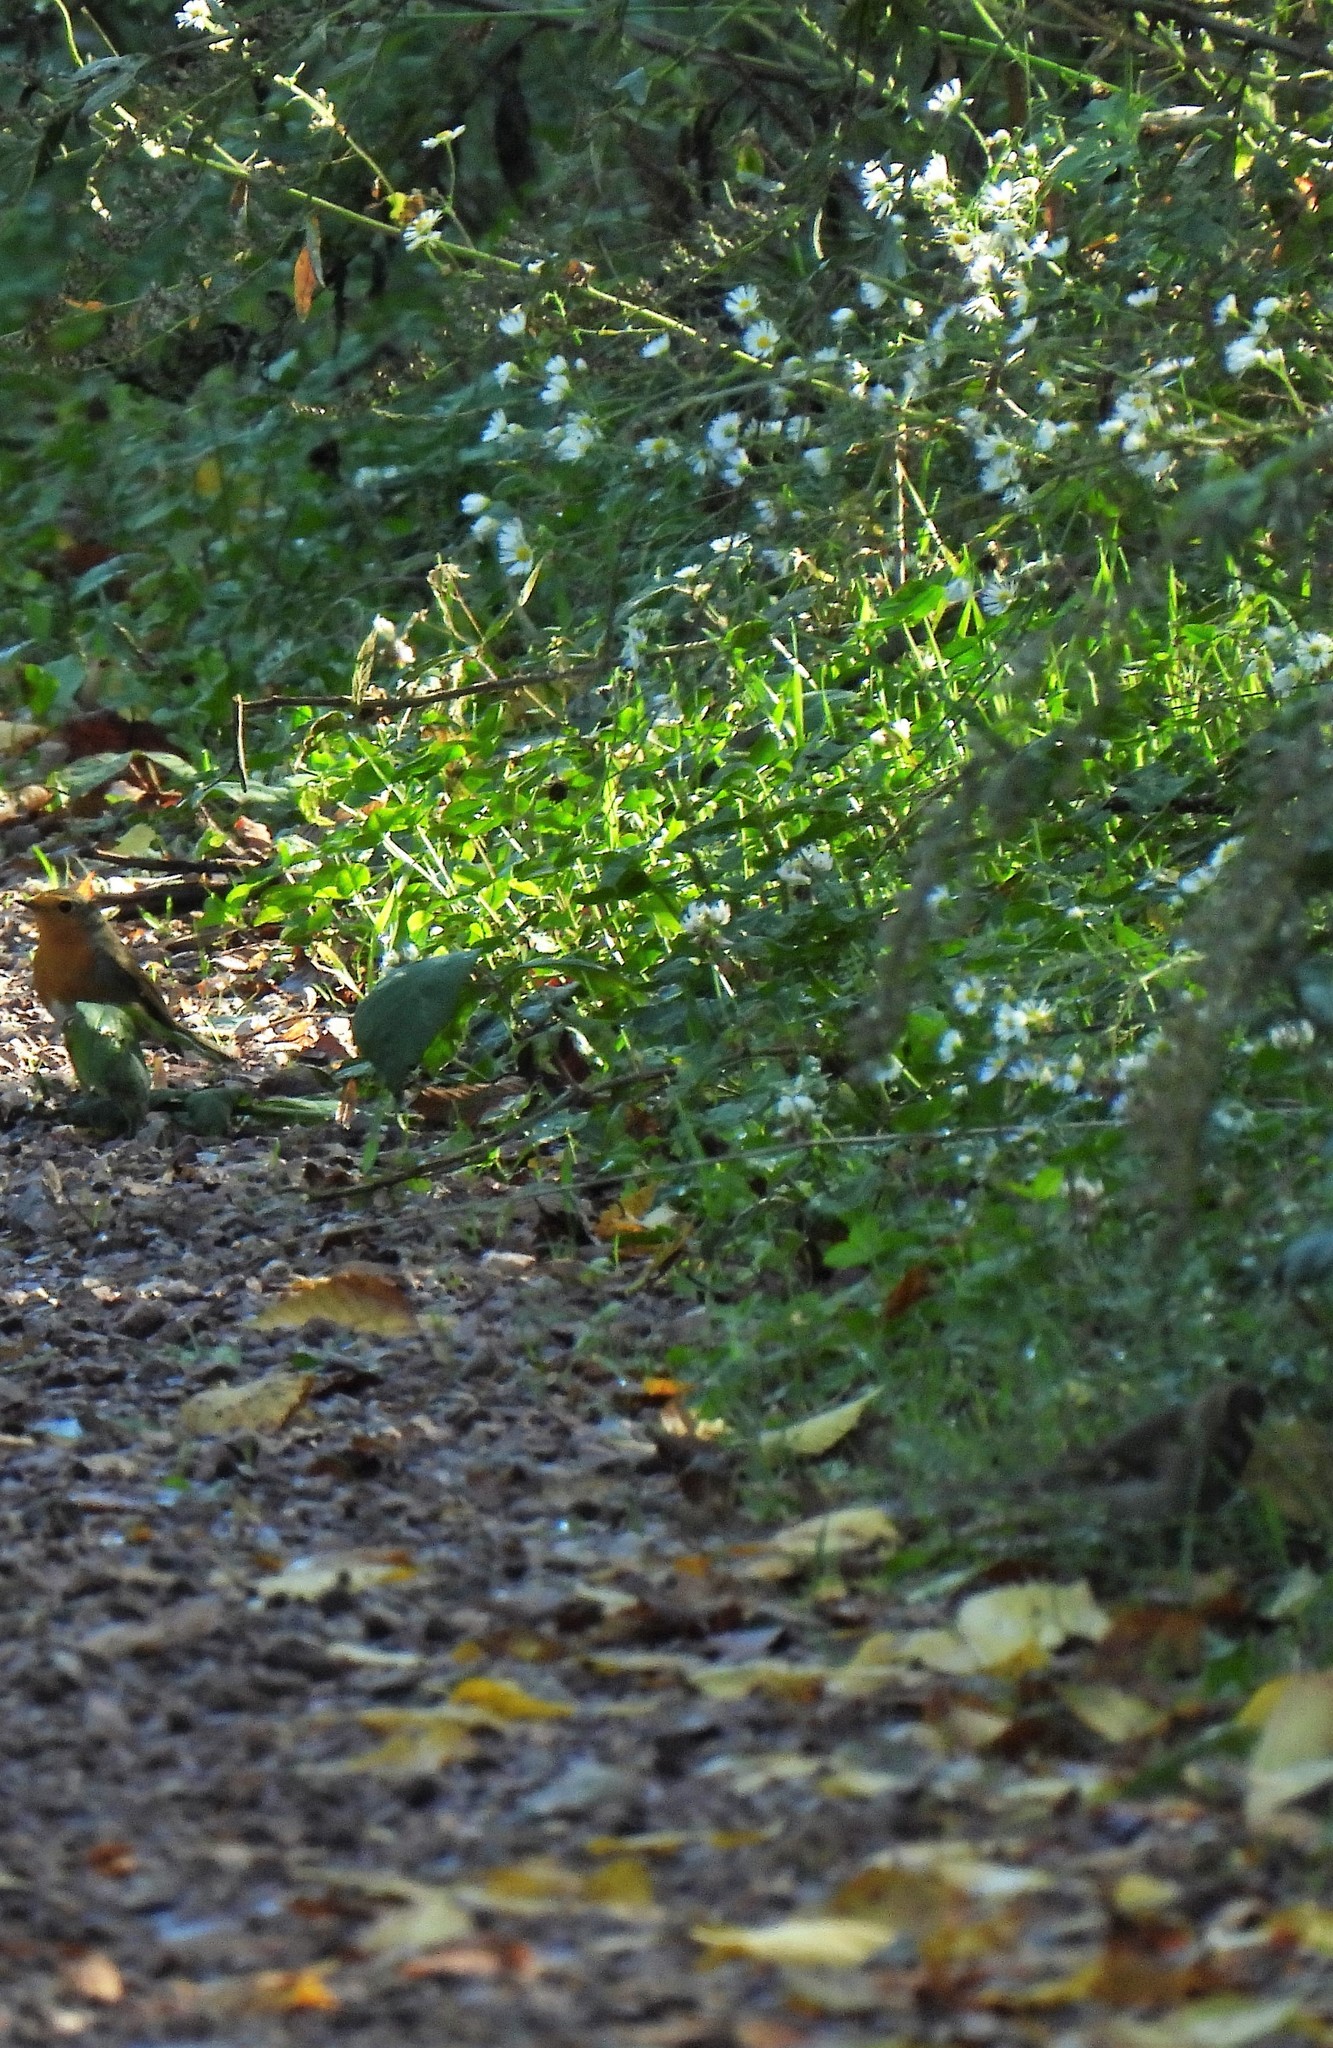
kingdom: Animalia
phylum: Chordata
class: Aves
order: Passeriformes
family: Muscicapidae
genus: Erithacus
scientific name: Erithacus rubecula
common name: European robin
